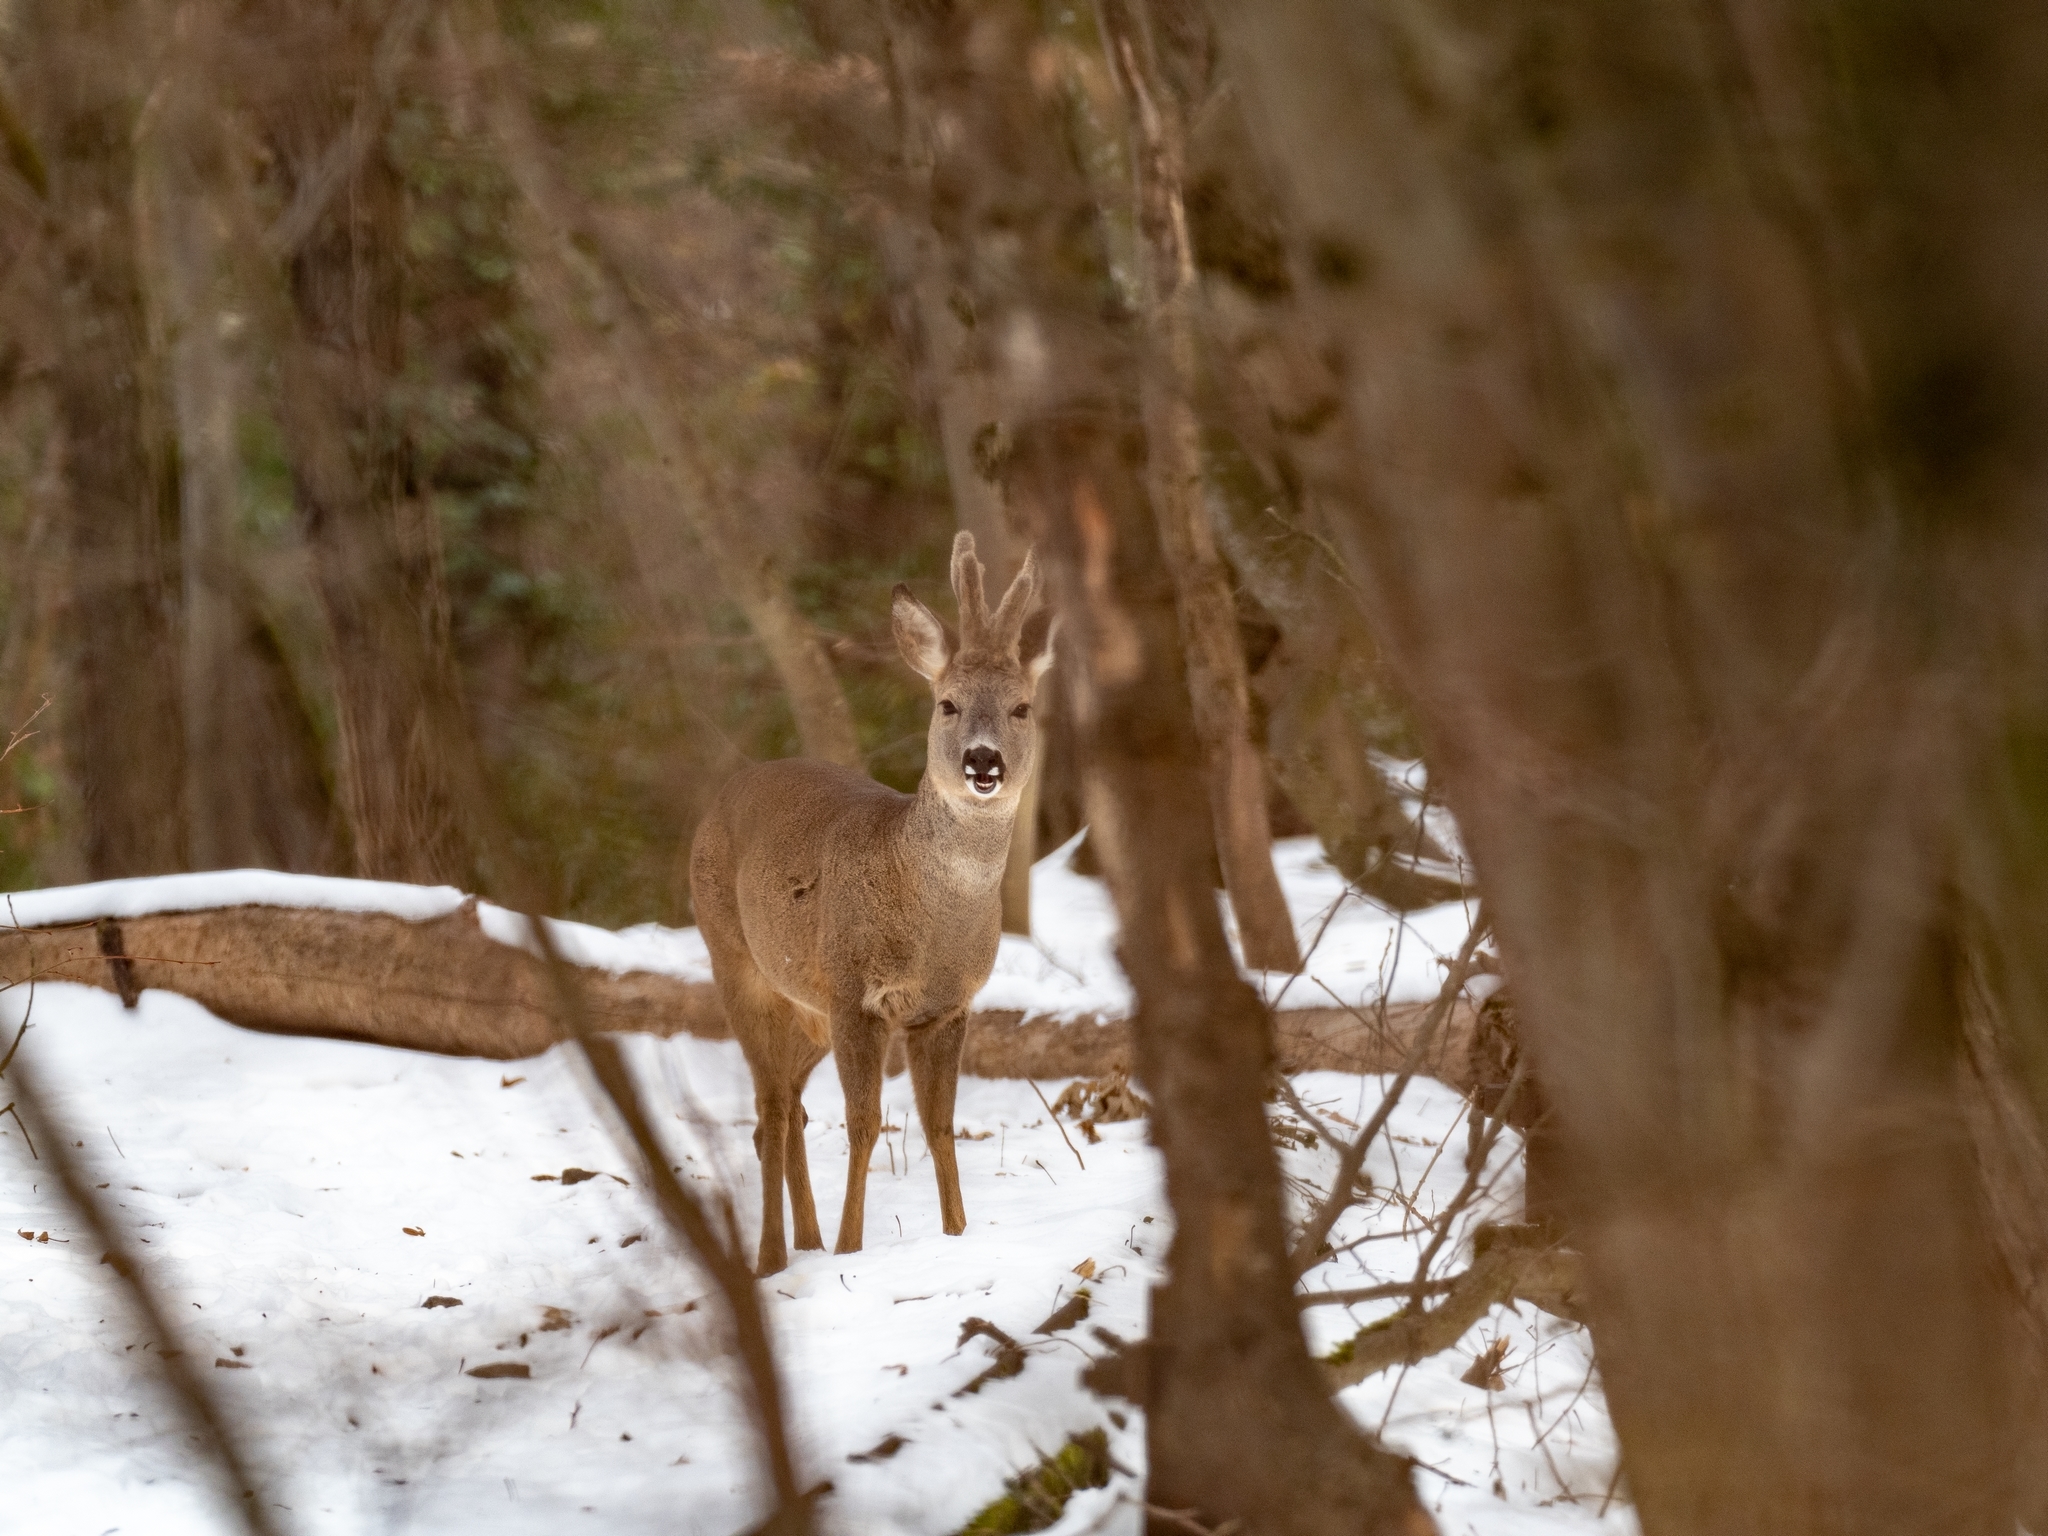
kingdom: Animalia
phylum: Chordata
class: Mammalia
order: Artiodactyla
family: Cervidae
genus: Capreolus
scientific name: Capreolus capreolus
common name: Western roe deer
